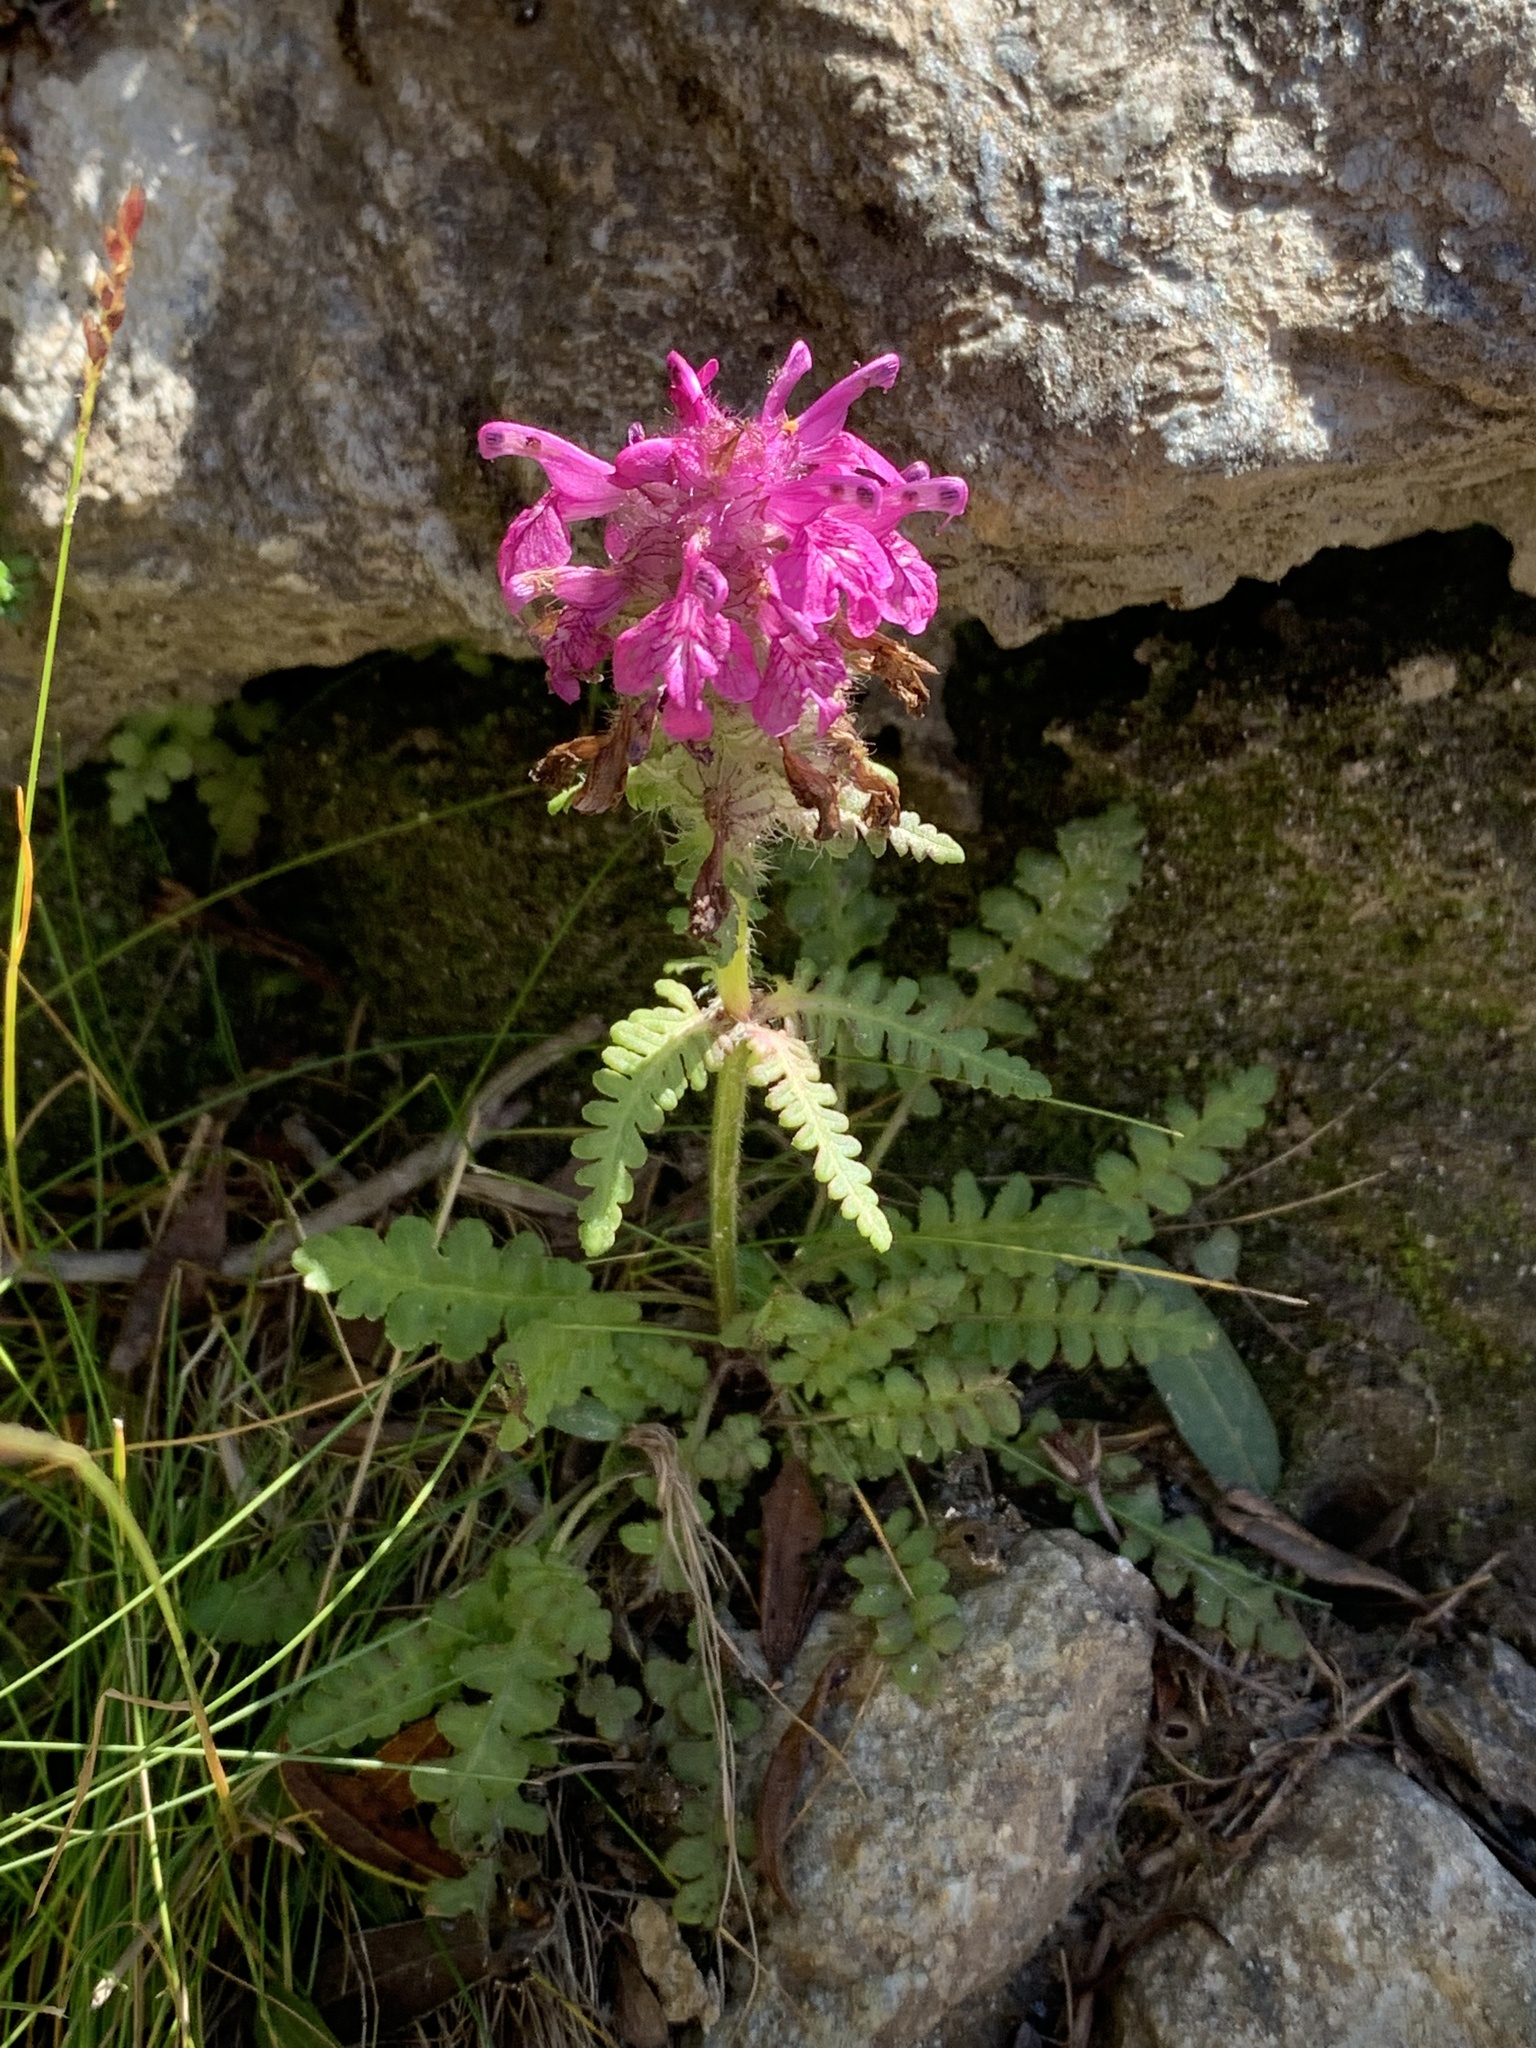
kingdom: Plantae
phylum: Tracheophyta
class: Magnoliopsida
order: Lamiales
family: Orobanchaceae
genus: Pedicularis
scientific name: Pedicularis verticillata
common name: Whorled lousewort
